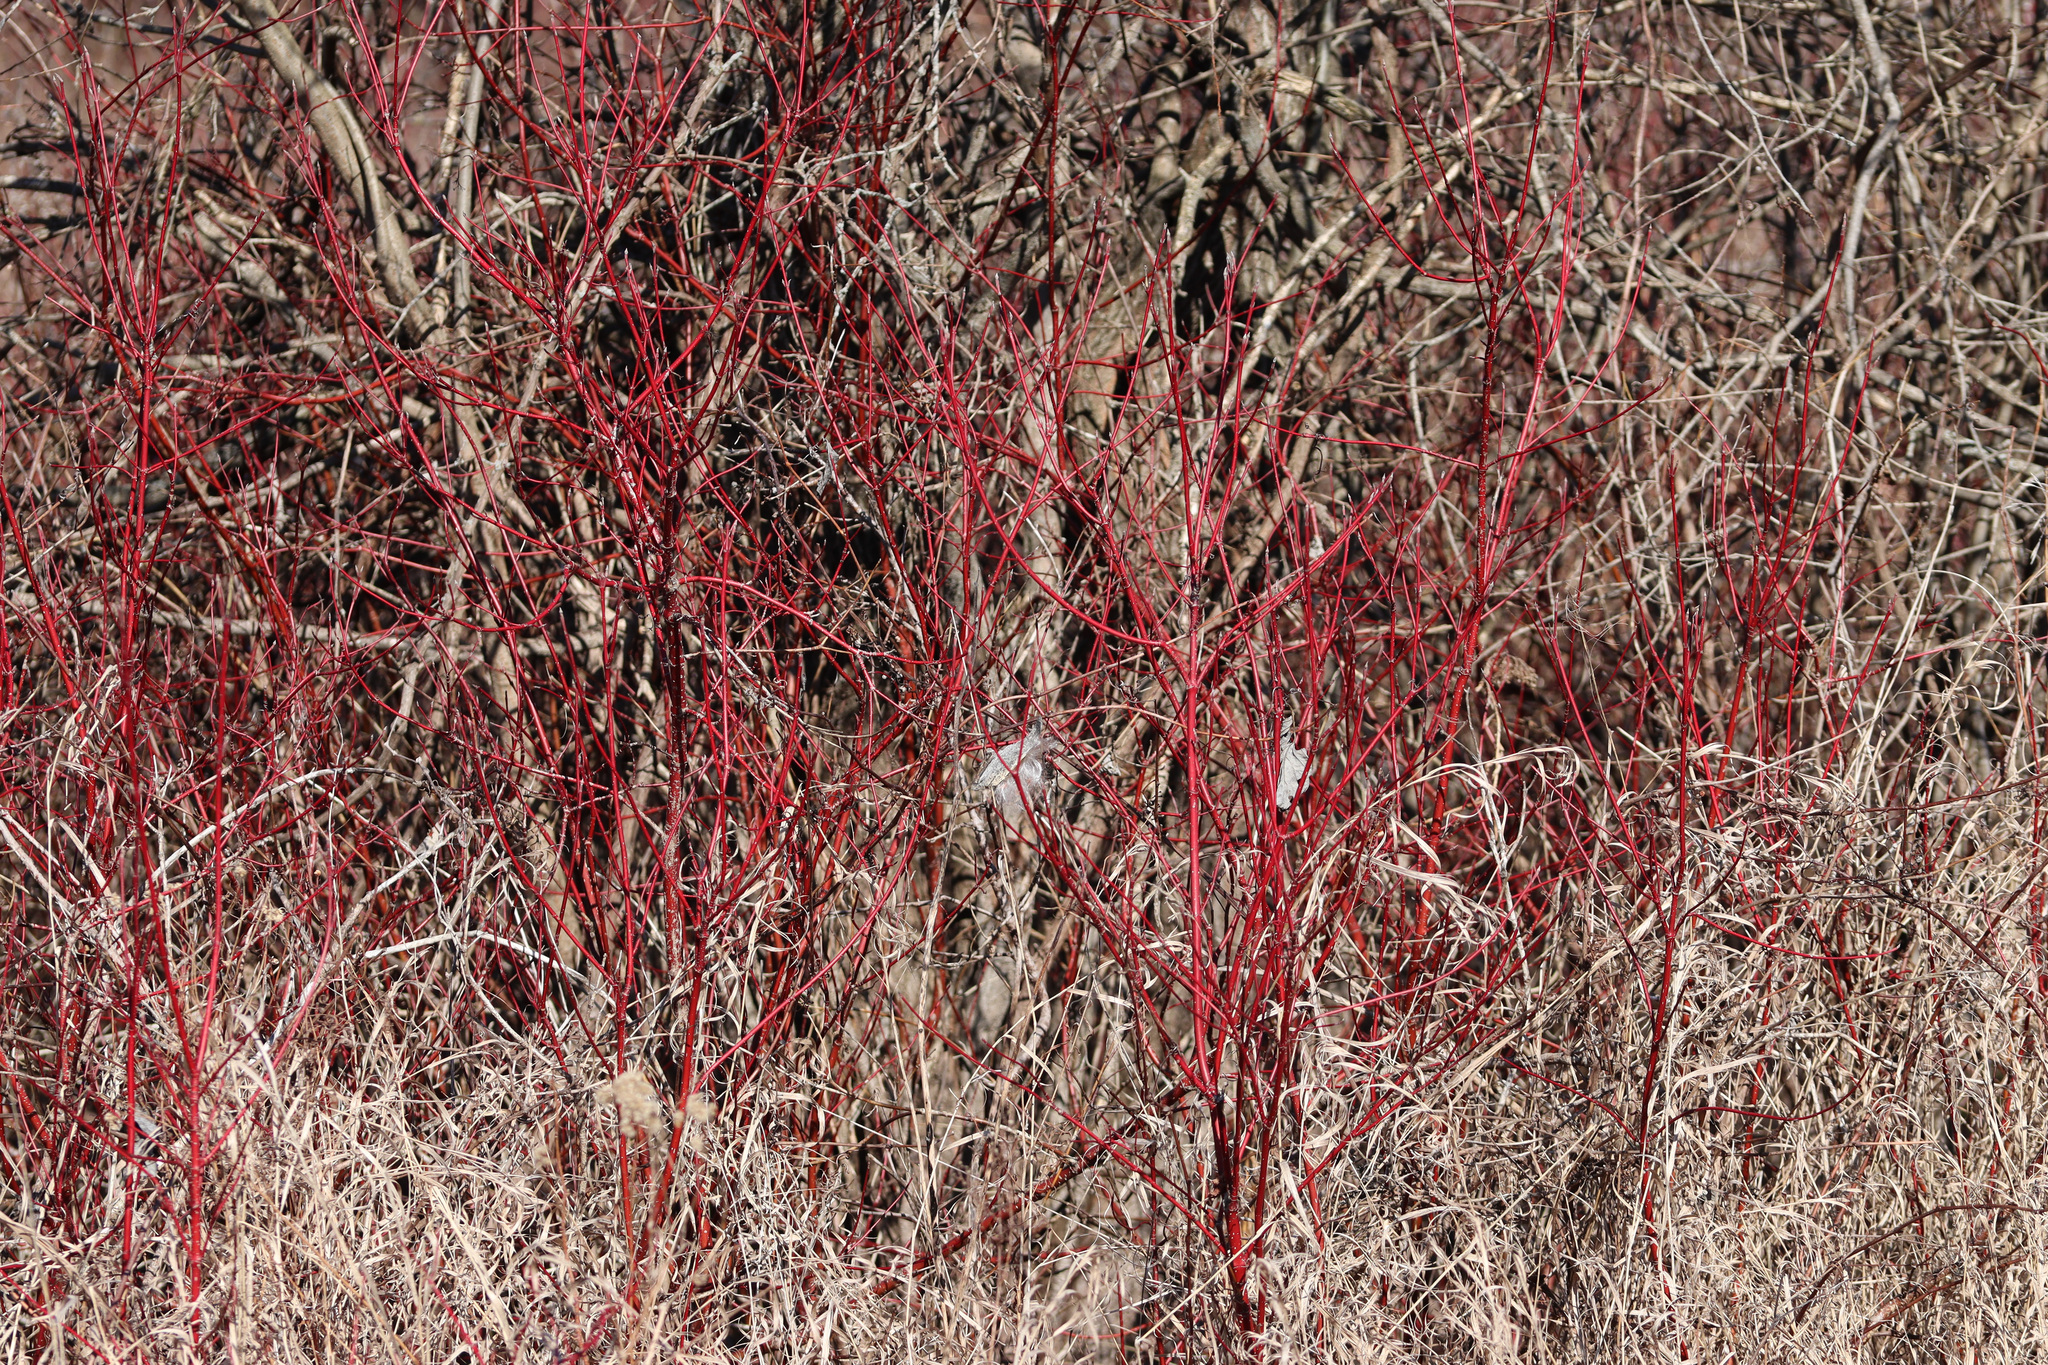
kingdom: Plantae
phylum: Tracheophyta
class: Magnoliopsida
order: Cornales
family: Cornaceae
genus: Cornus
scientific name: Cornus sericea
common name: Red-osier dogwood
